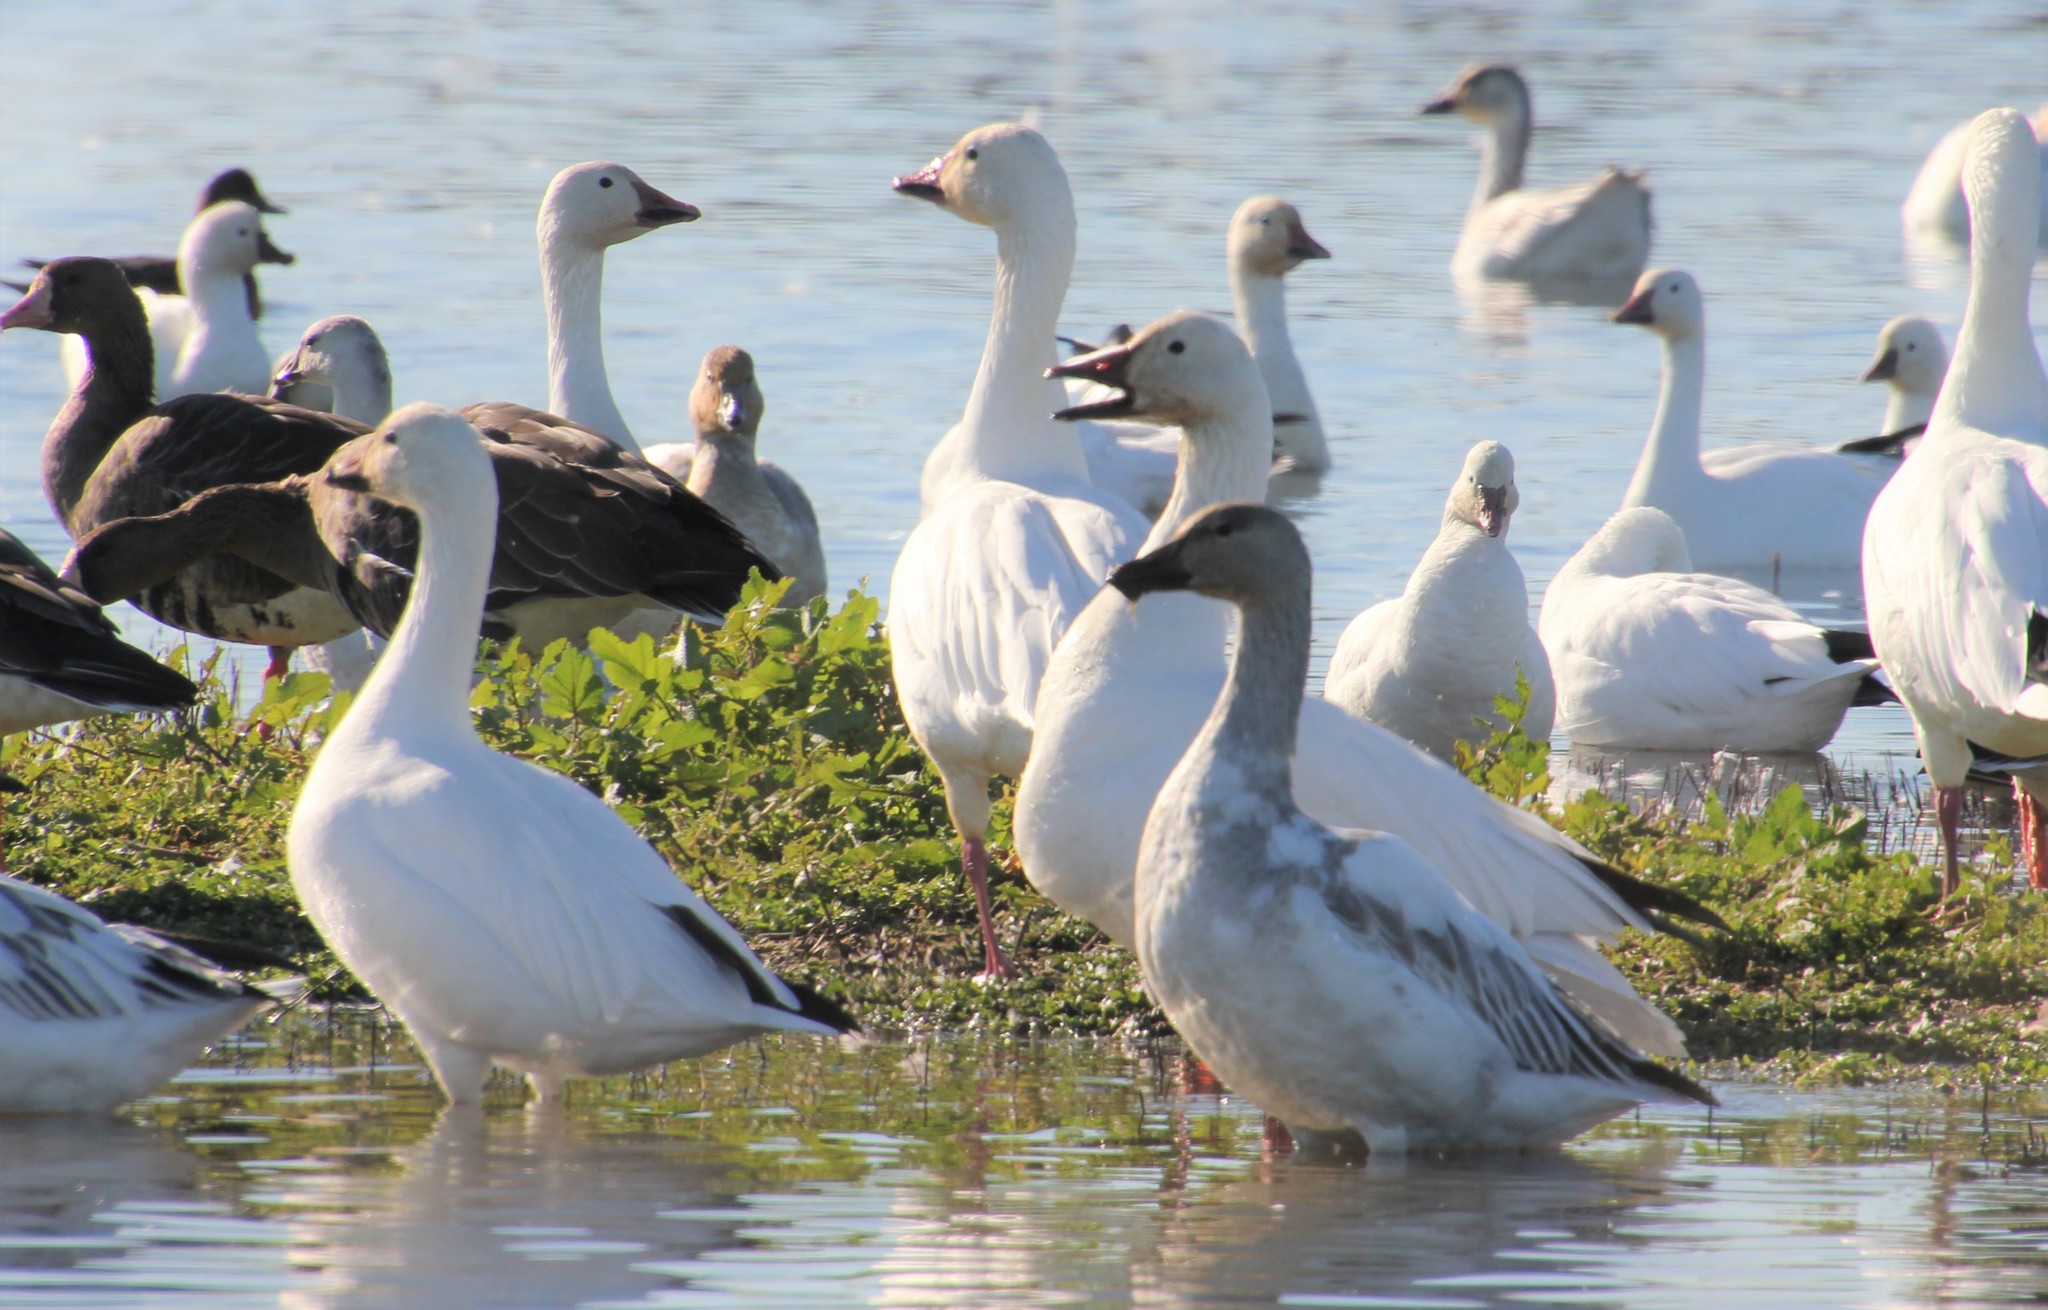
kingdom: Animalia
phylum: Chordata
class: Aves
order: Anseriformes
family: Anatidae
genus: Anser
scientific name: Anser caerulescens
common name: Snow goose
